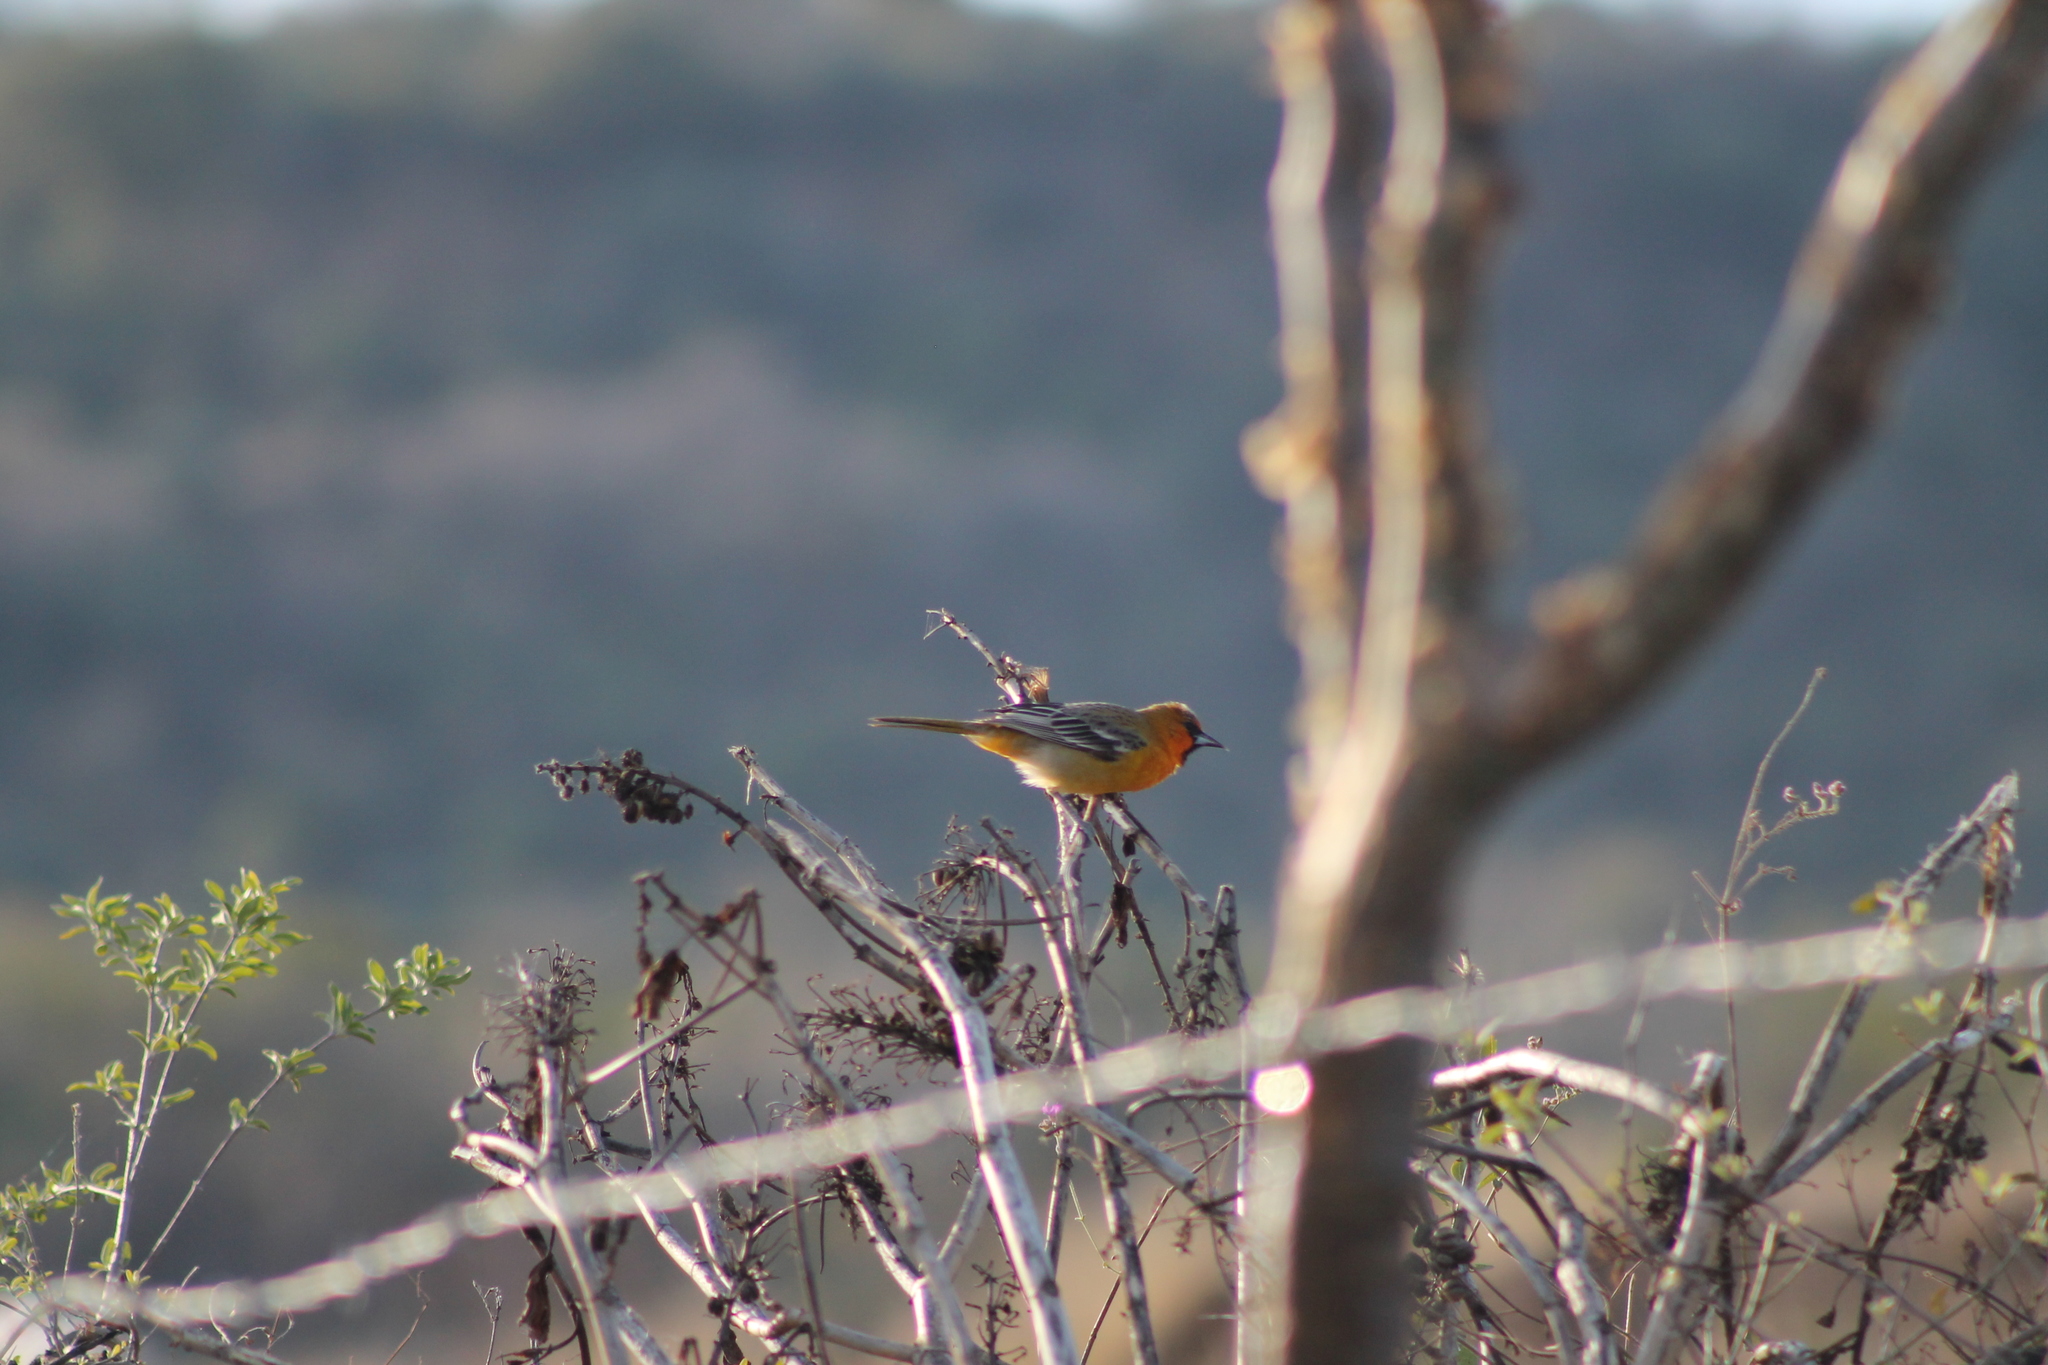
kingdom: Animalia
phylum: Chordata
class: Aves
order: Passeriformes
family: Icteridae
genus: Icterus
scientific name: Icterus pustulatus
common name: Streak-backed oriole
